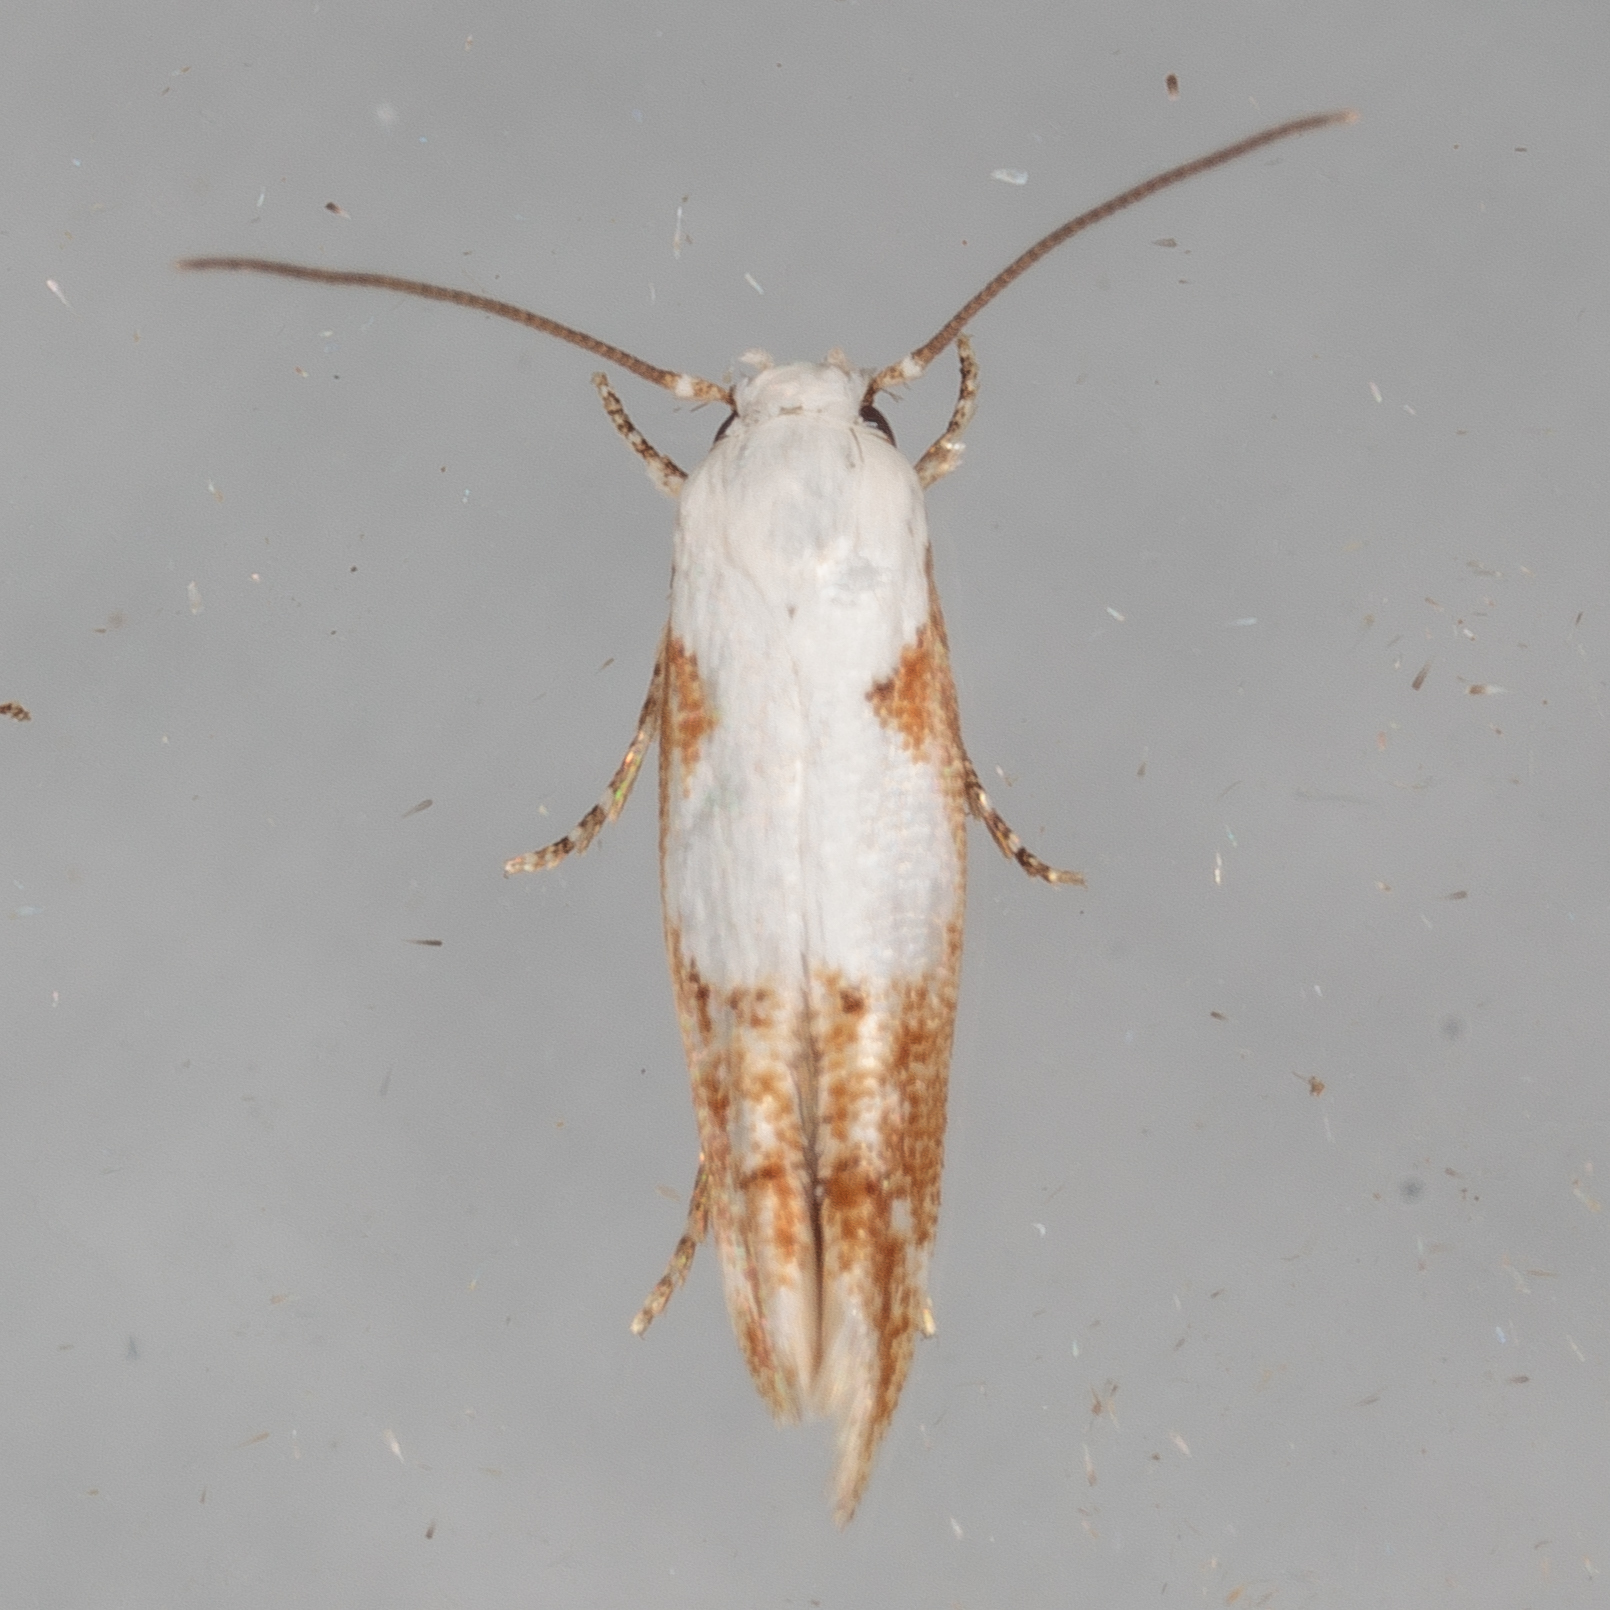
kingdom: Animalia
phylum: Arthropoda
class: Insecta
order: Lepidoptera
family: Momphidae
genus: Mompha
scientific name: Mompha circumscriptella
